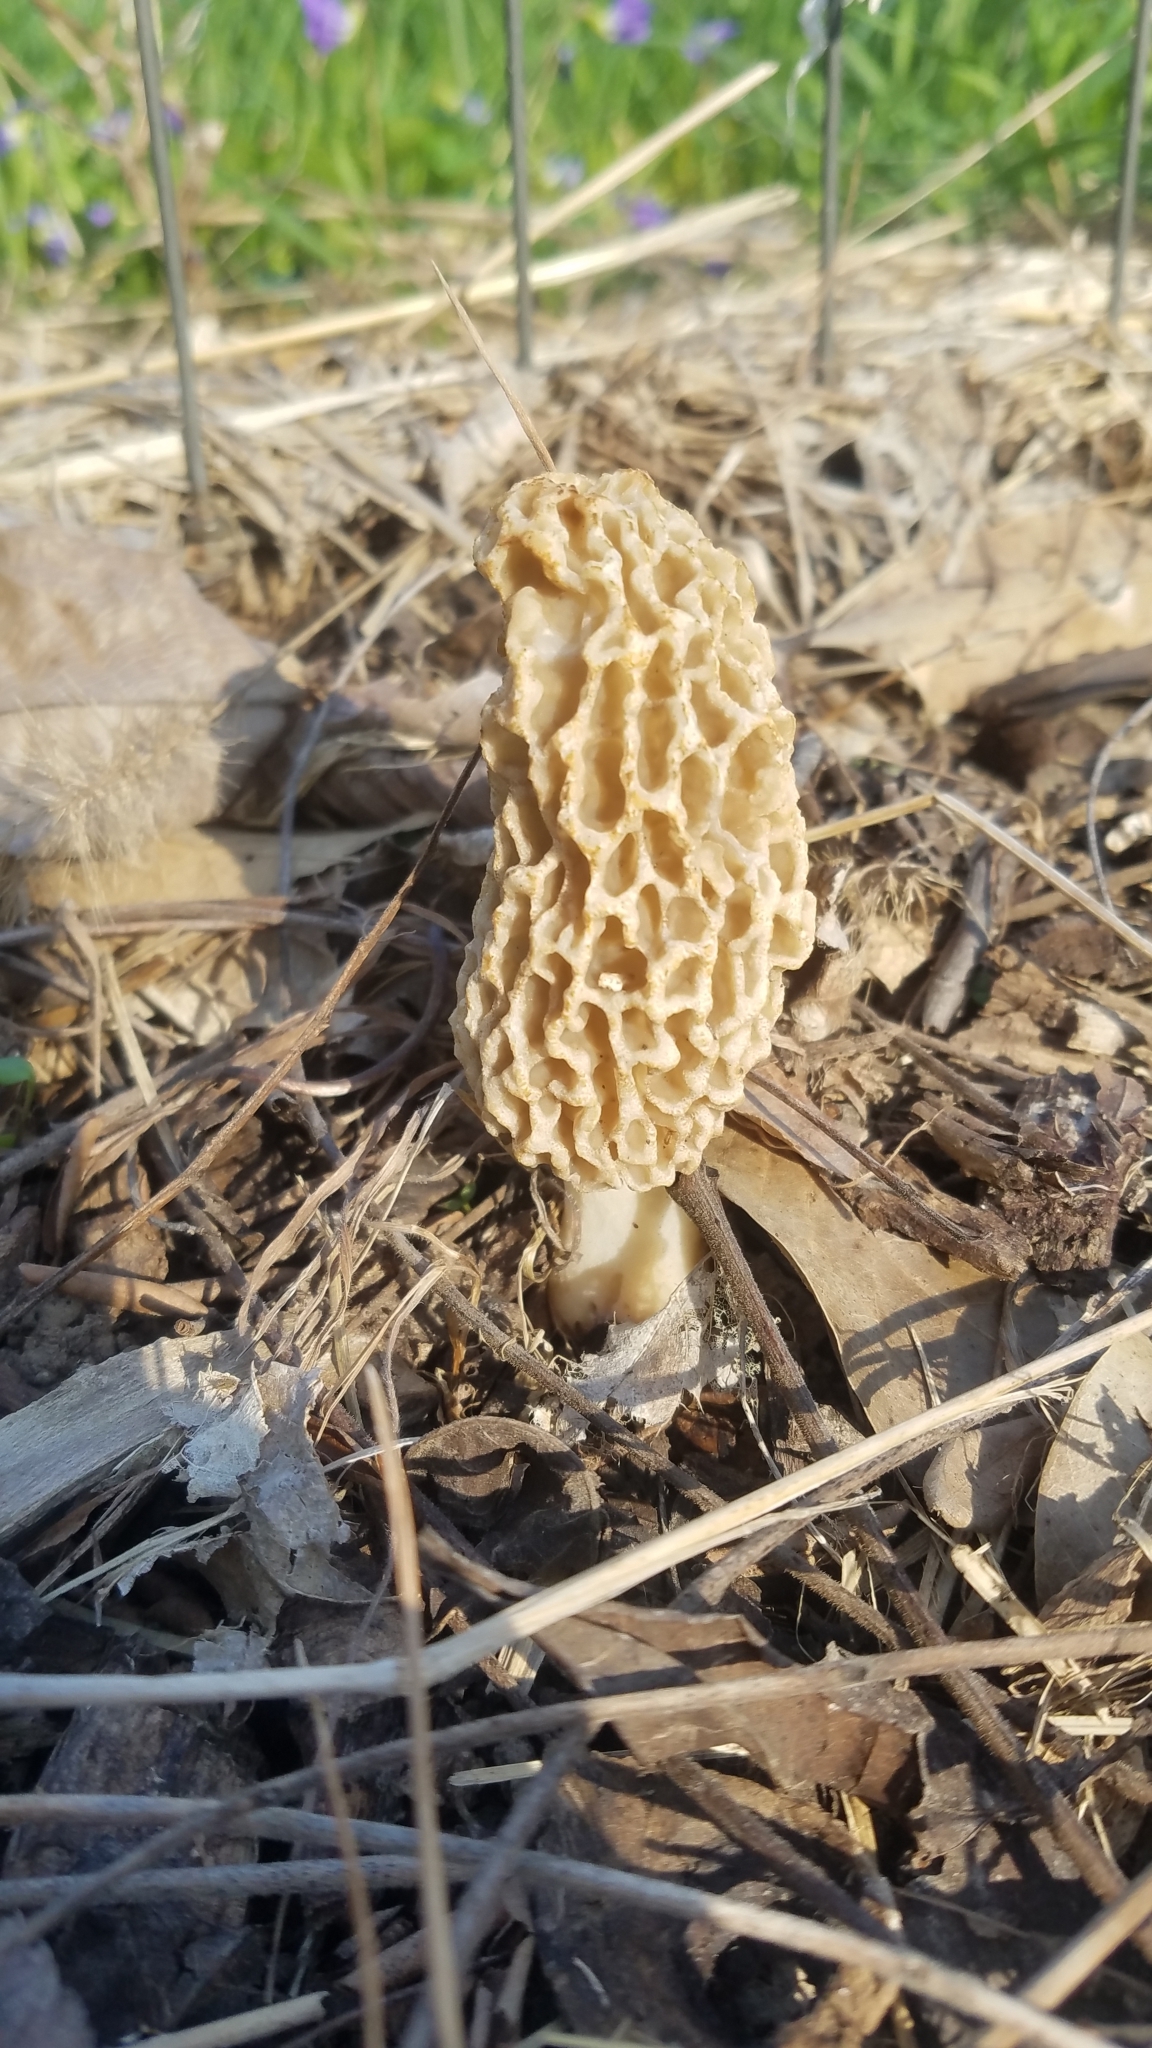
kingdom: Fungi
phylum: Ascomycota
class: Pezizomycetes
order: Pezizales
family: Morchellaceae
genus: Morchella
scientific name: Morchella americana
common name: White morel
